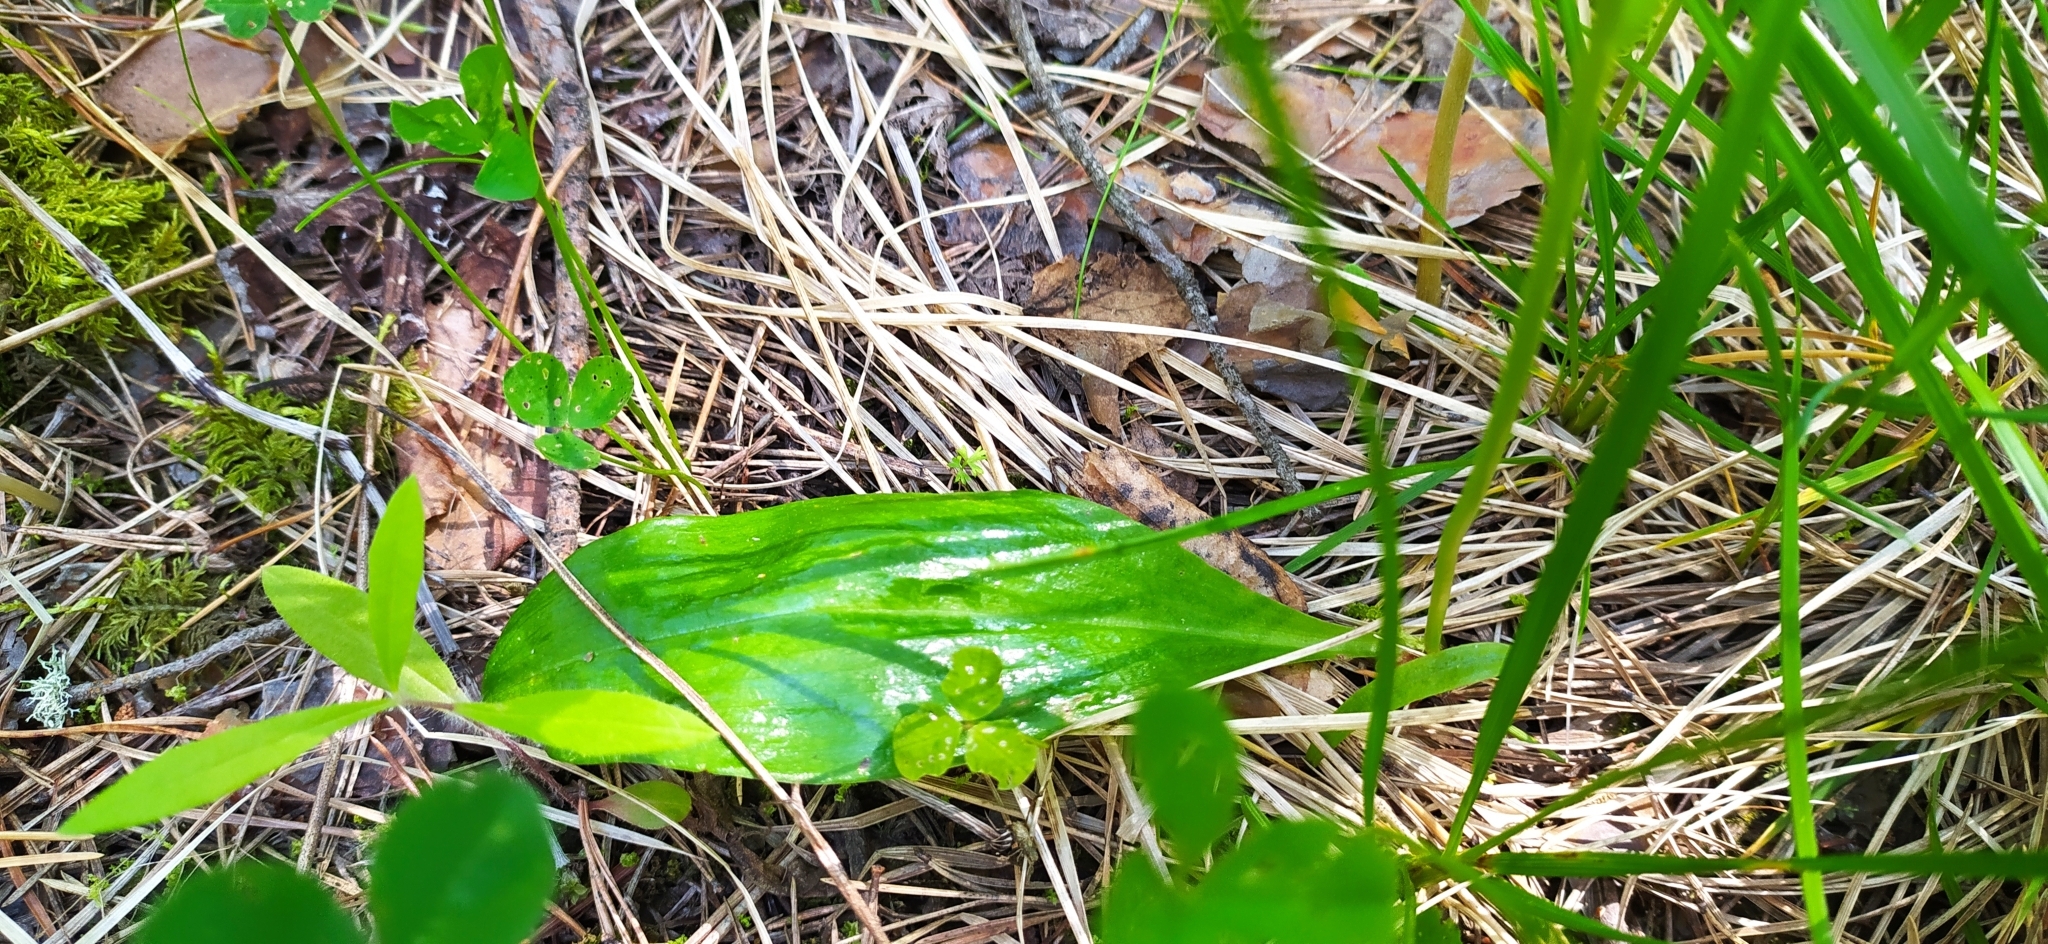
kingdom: Plantae
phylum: Tracheophyta
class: Liliopsida
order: Asparagales
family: Orchidaceae
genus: Platanthera
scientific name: Platanthera bifolia
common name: Lesser butterfly-orchid
